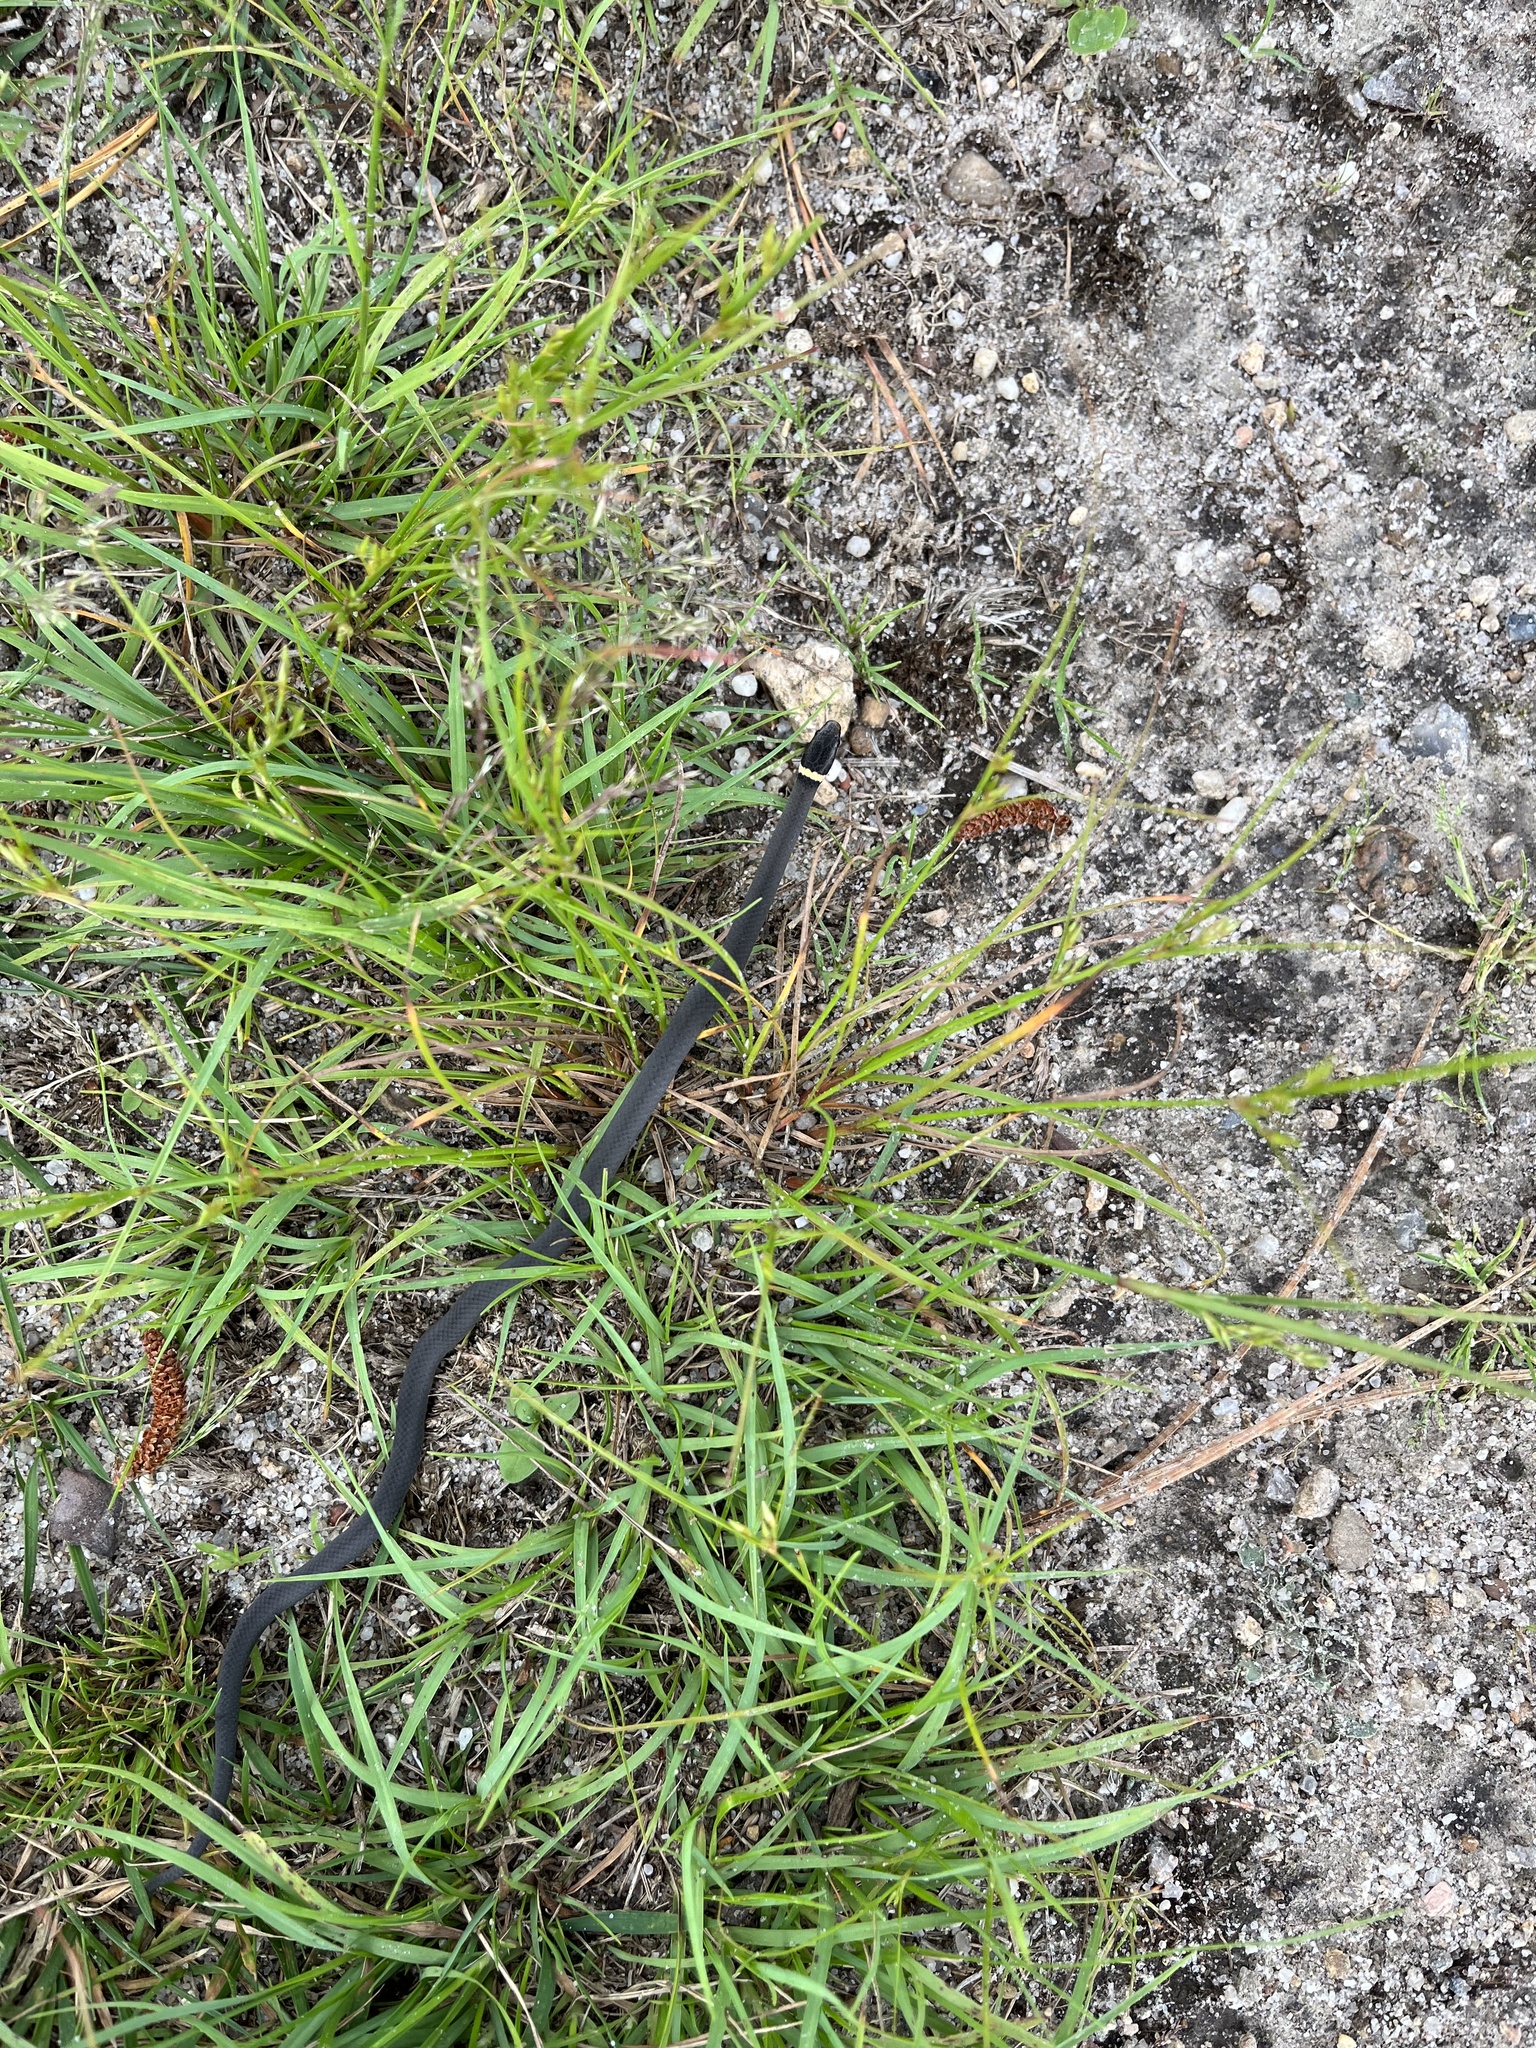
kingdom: Animalia
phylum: Chordata
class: Squamata
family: Colubridae
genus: Diadophis
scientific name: Diadophis punctatus
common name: Ringneck snake
